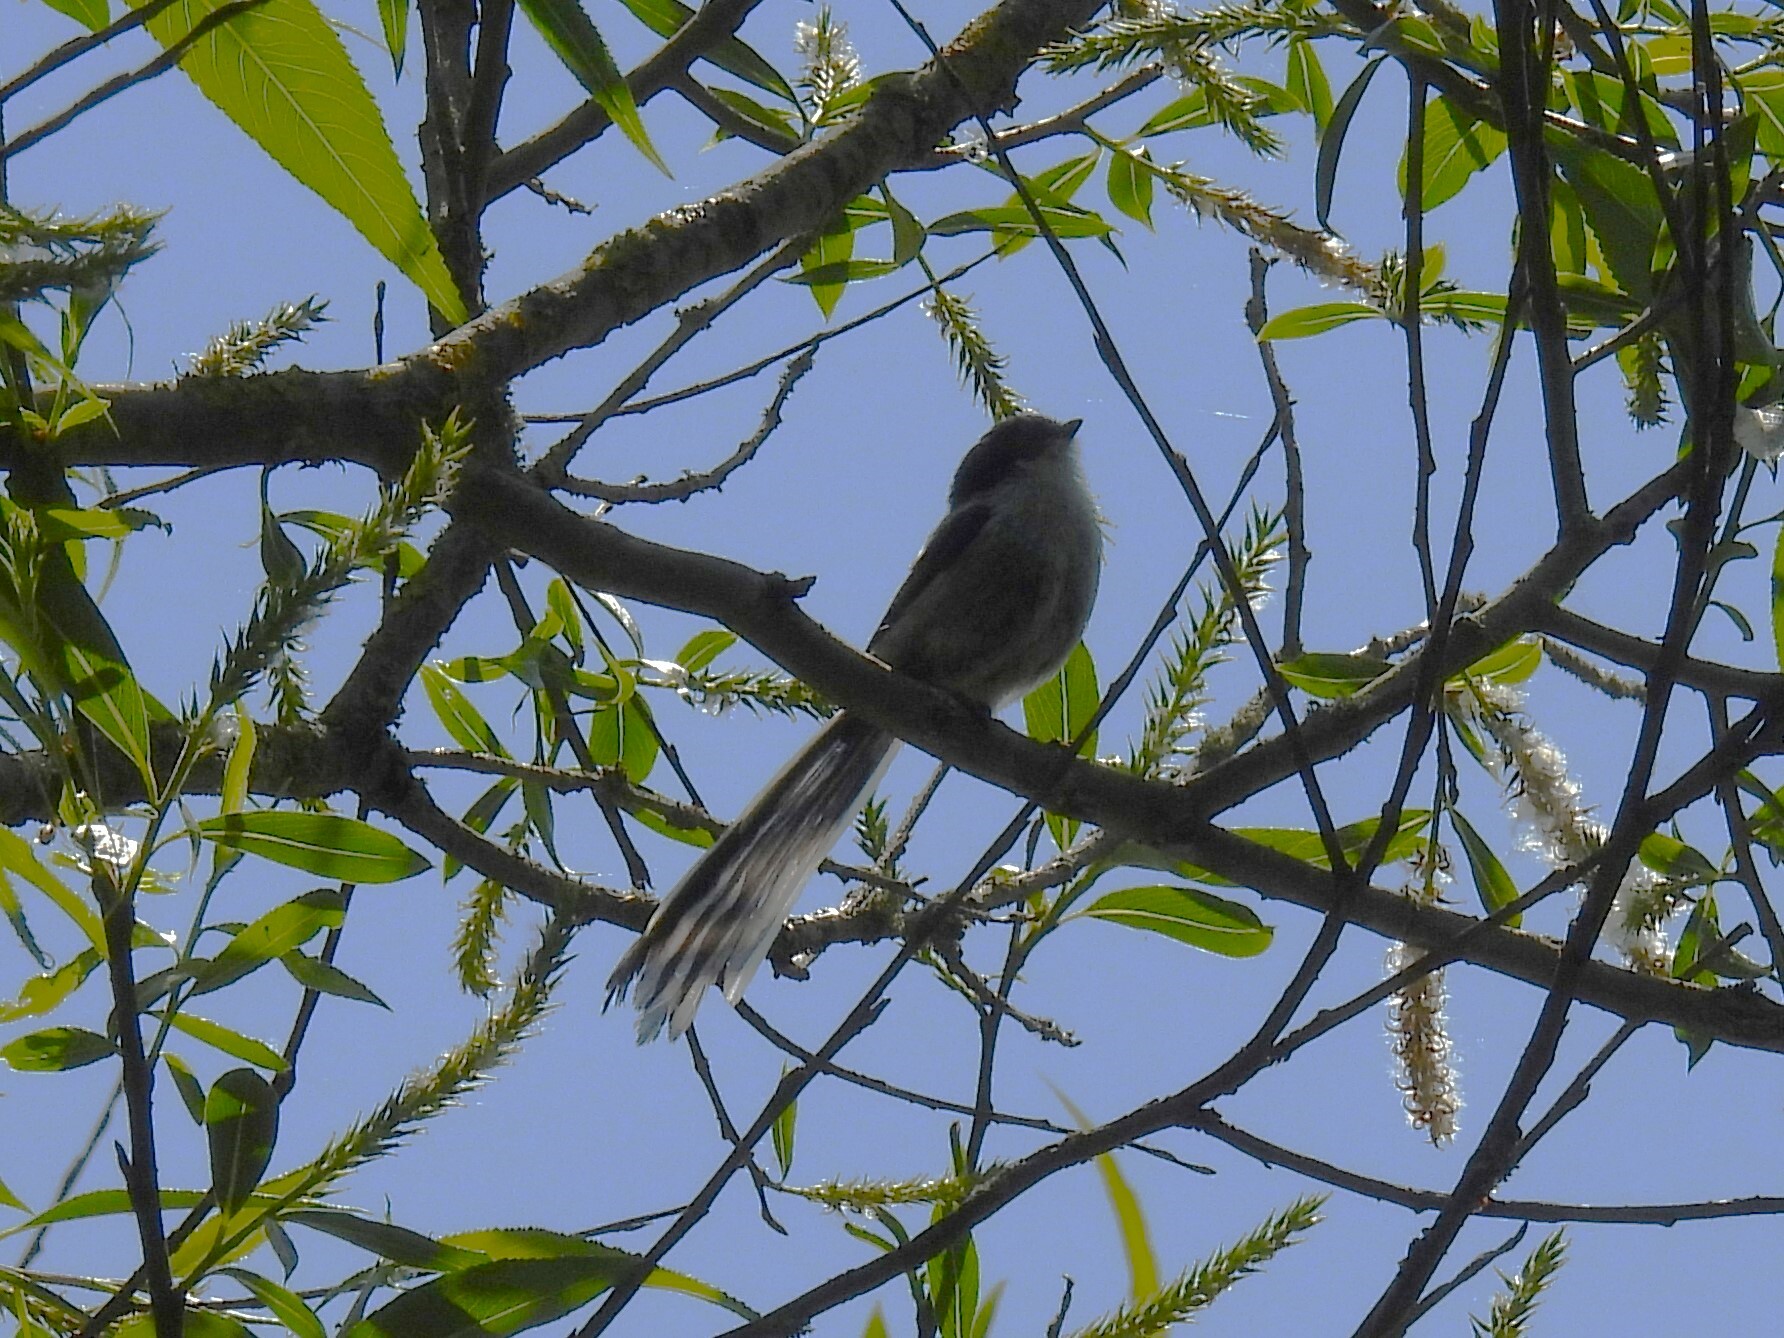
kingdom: Animalia
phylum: Chordata
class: Aves
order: Passeriformes
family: Aegithalidae
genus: Aegithalos
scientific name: Aegithalos caudatus
